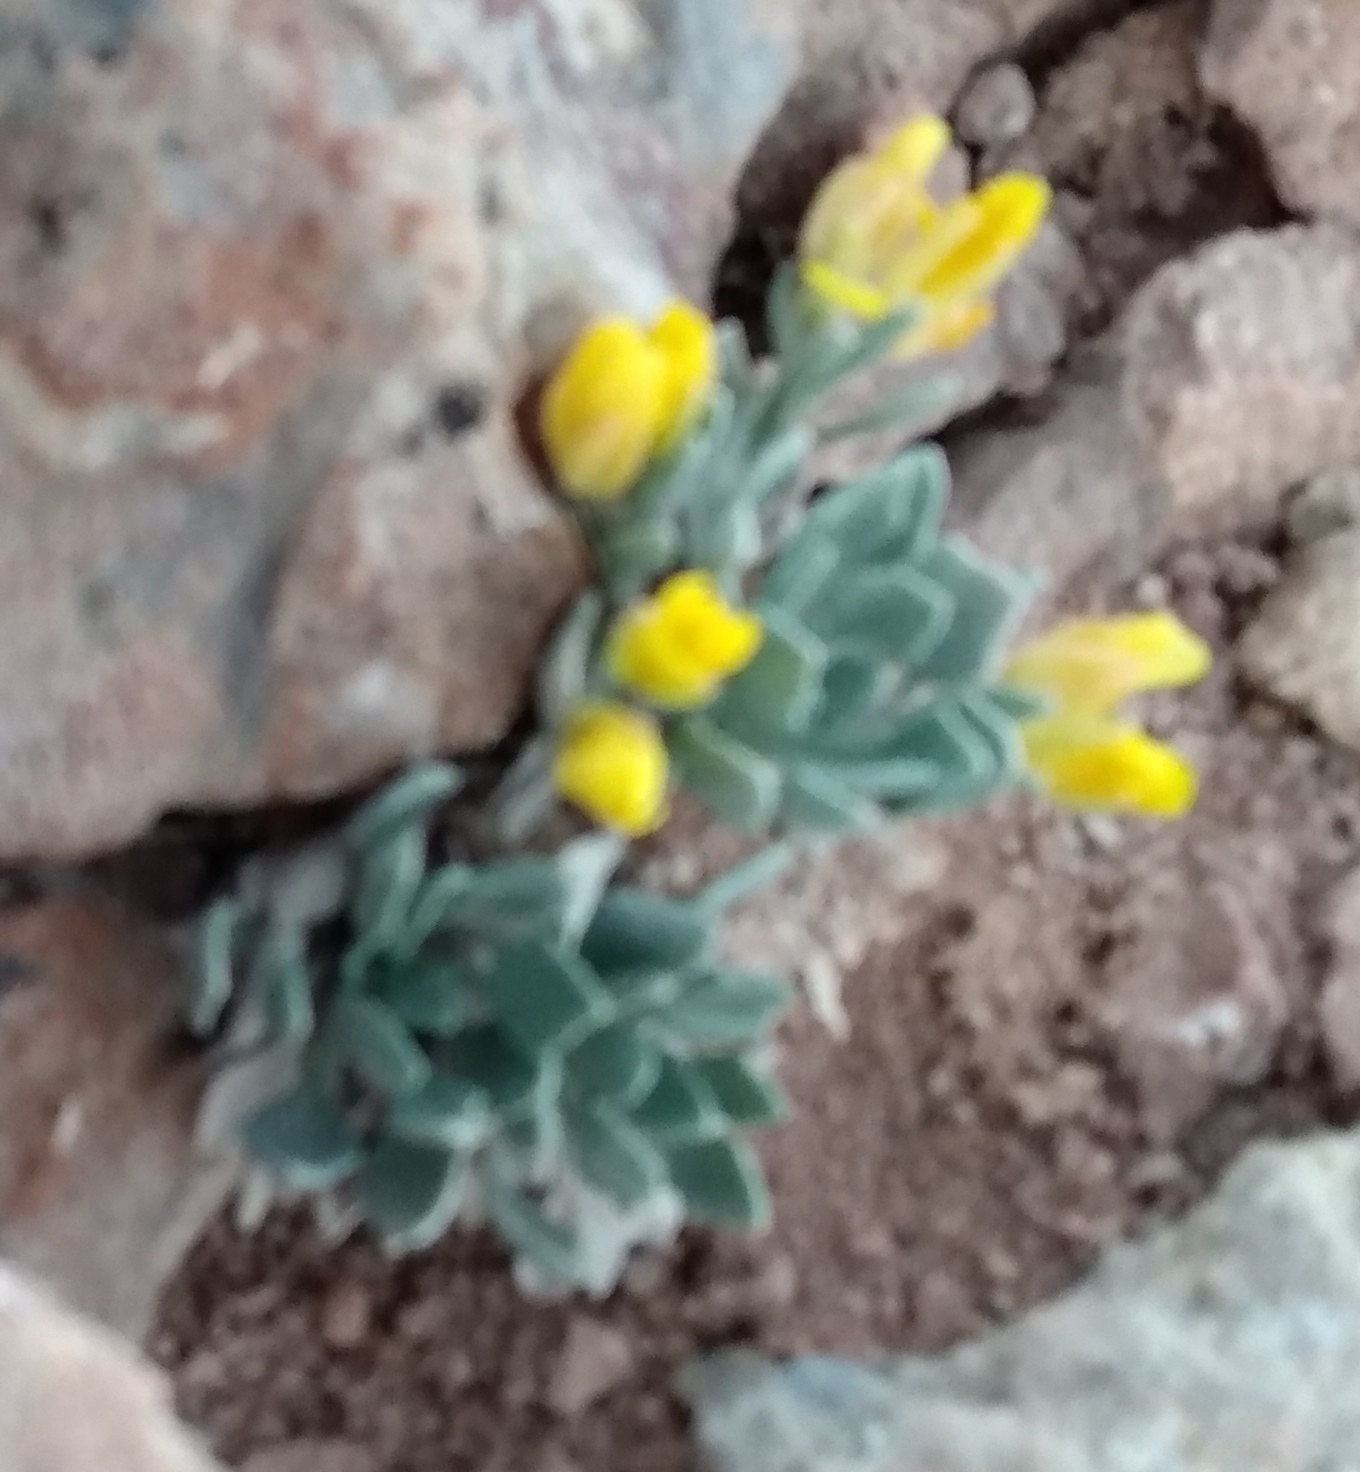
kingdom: Plantae
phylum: Tracheophyta
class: Magnoliopsida
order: Brassicales
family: Brassicaceae
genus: Physaria
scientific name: Physaria alpina
